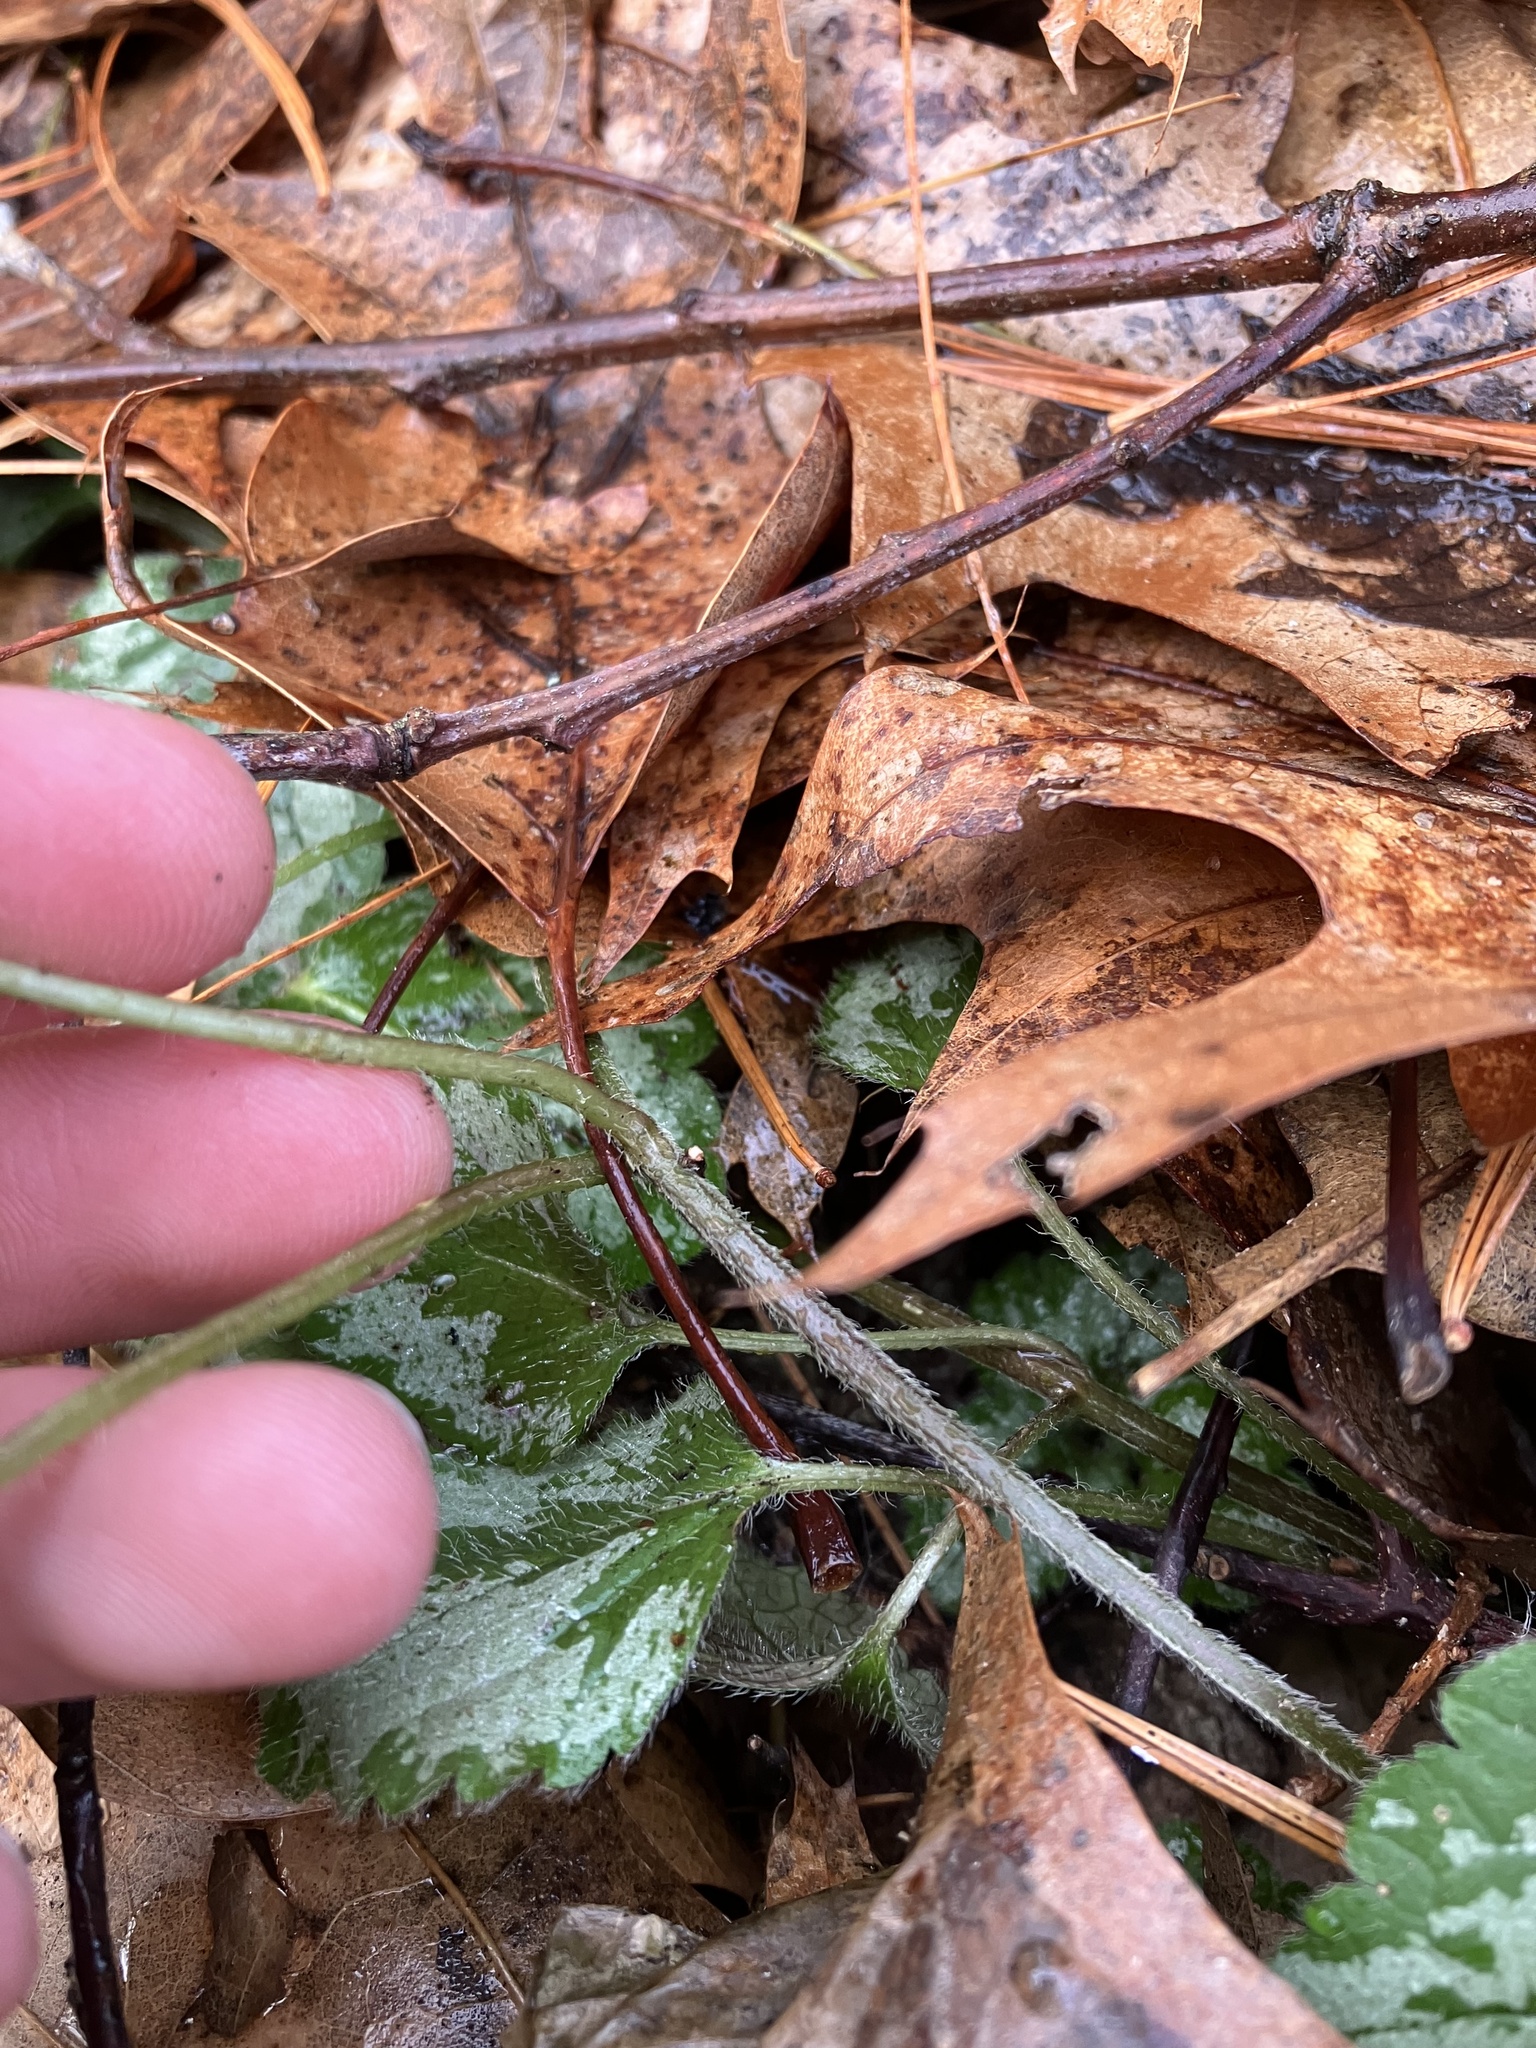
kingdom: Plantae
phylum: Tracheophyta
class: Magnoliopsida
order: Lamiales
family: Lamiaceae
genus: Lamium
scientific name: Lamium galeobdolon
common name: Yellow archangel
